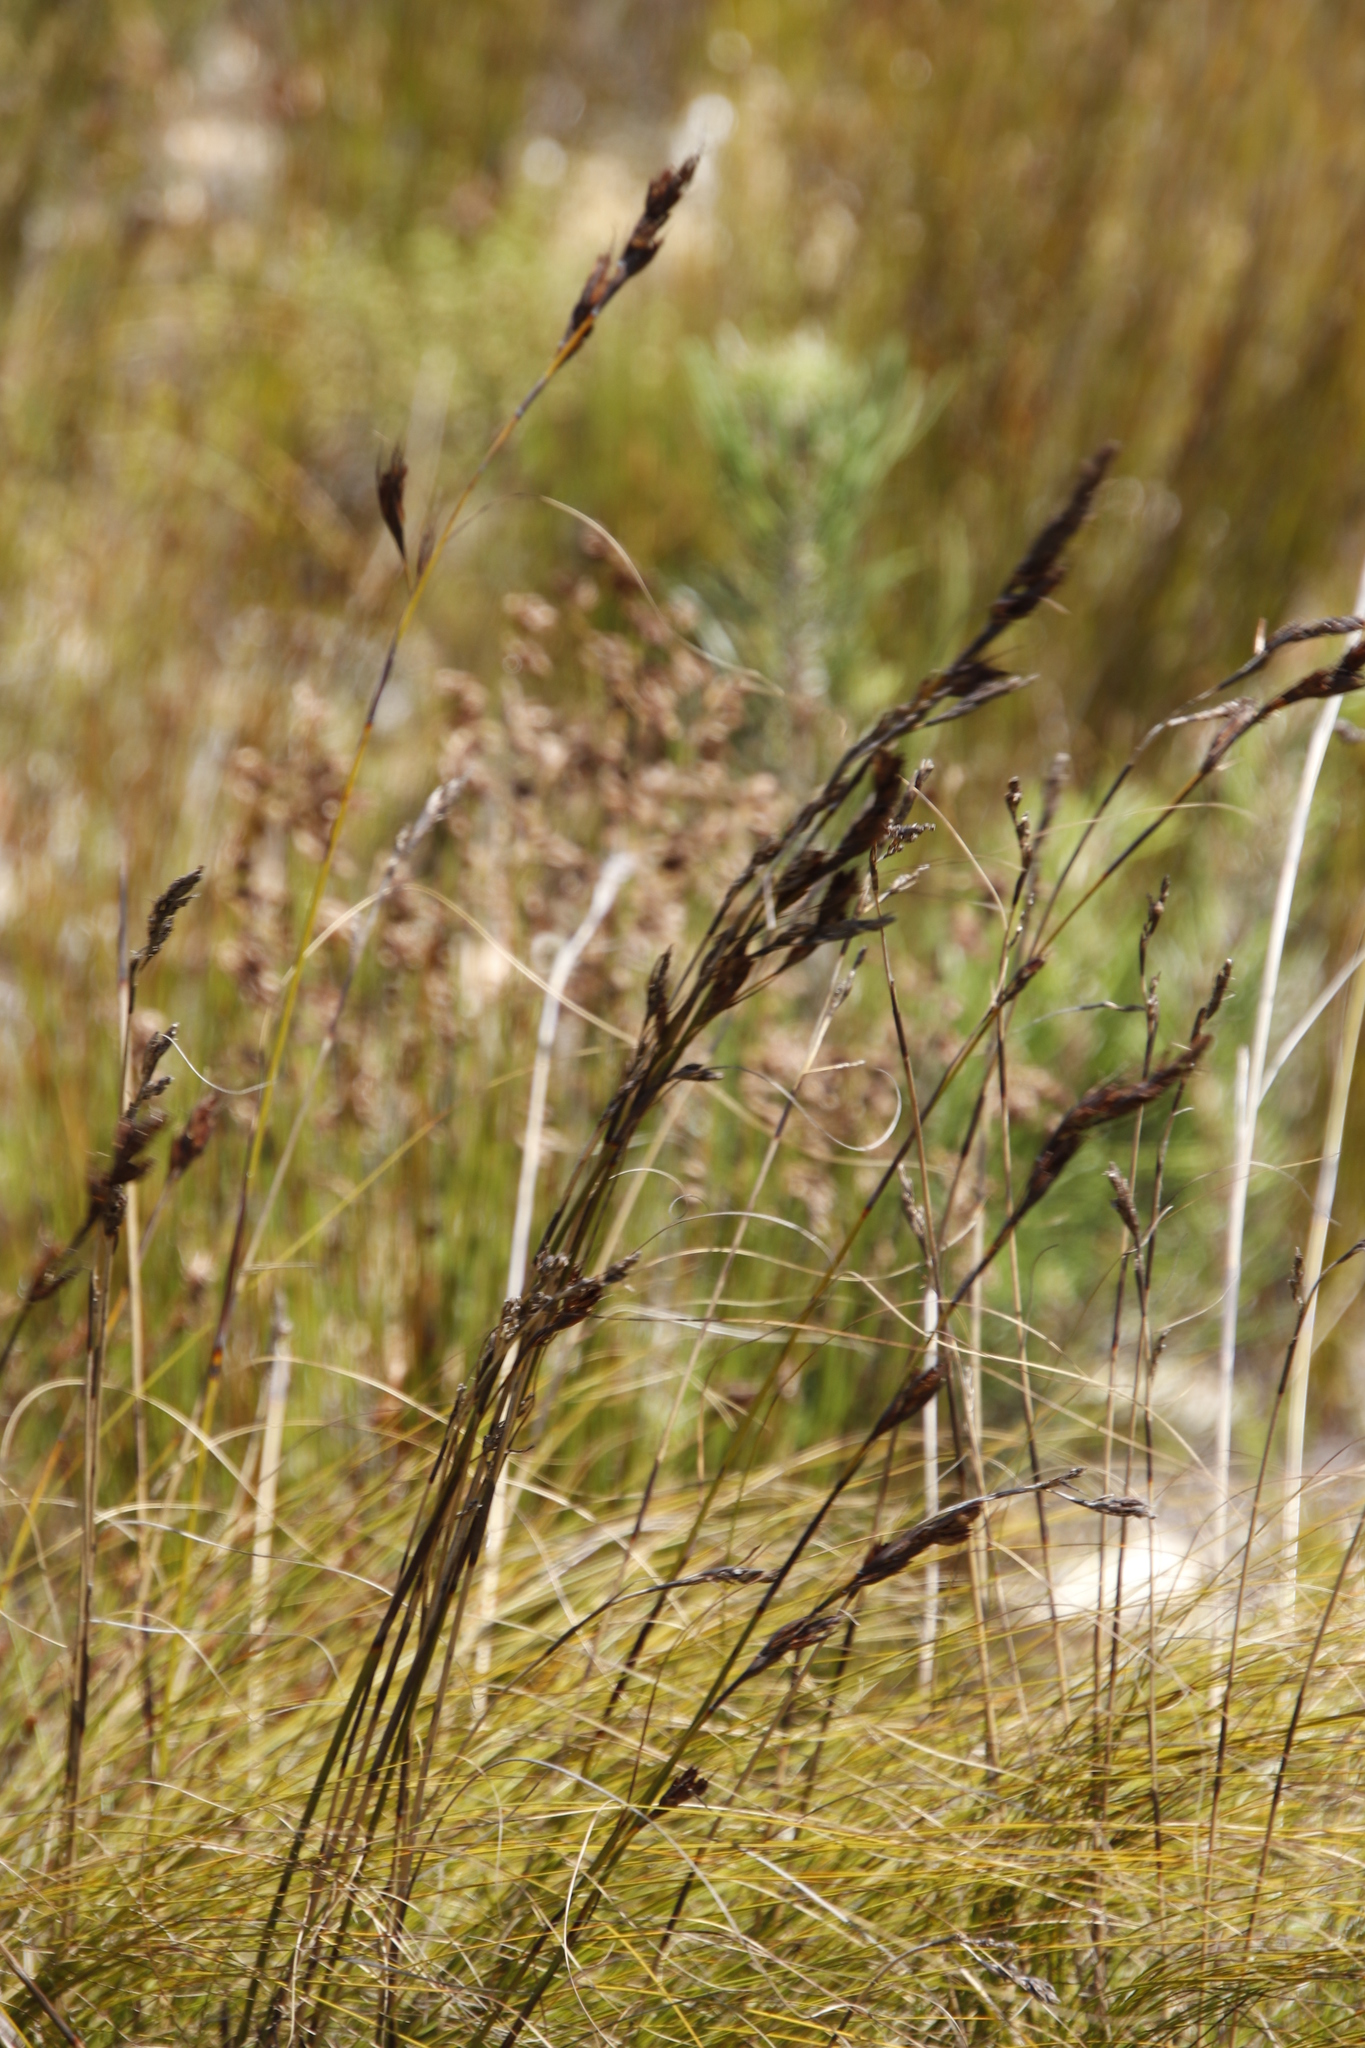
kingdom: Plantae
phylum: Tracheophyta
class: Liliopsida
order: Poales
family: Cyperaceae
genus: Tetraria
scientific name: Tetraria ustulata
